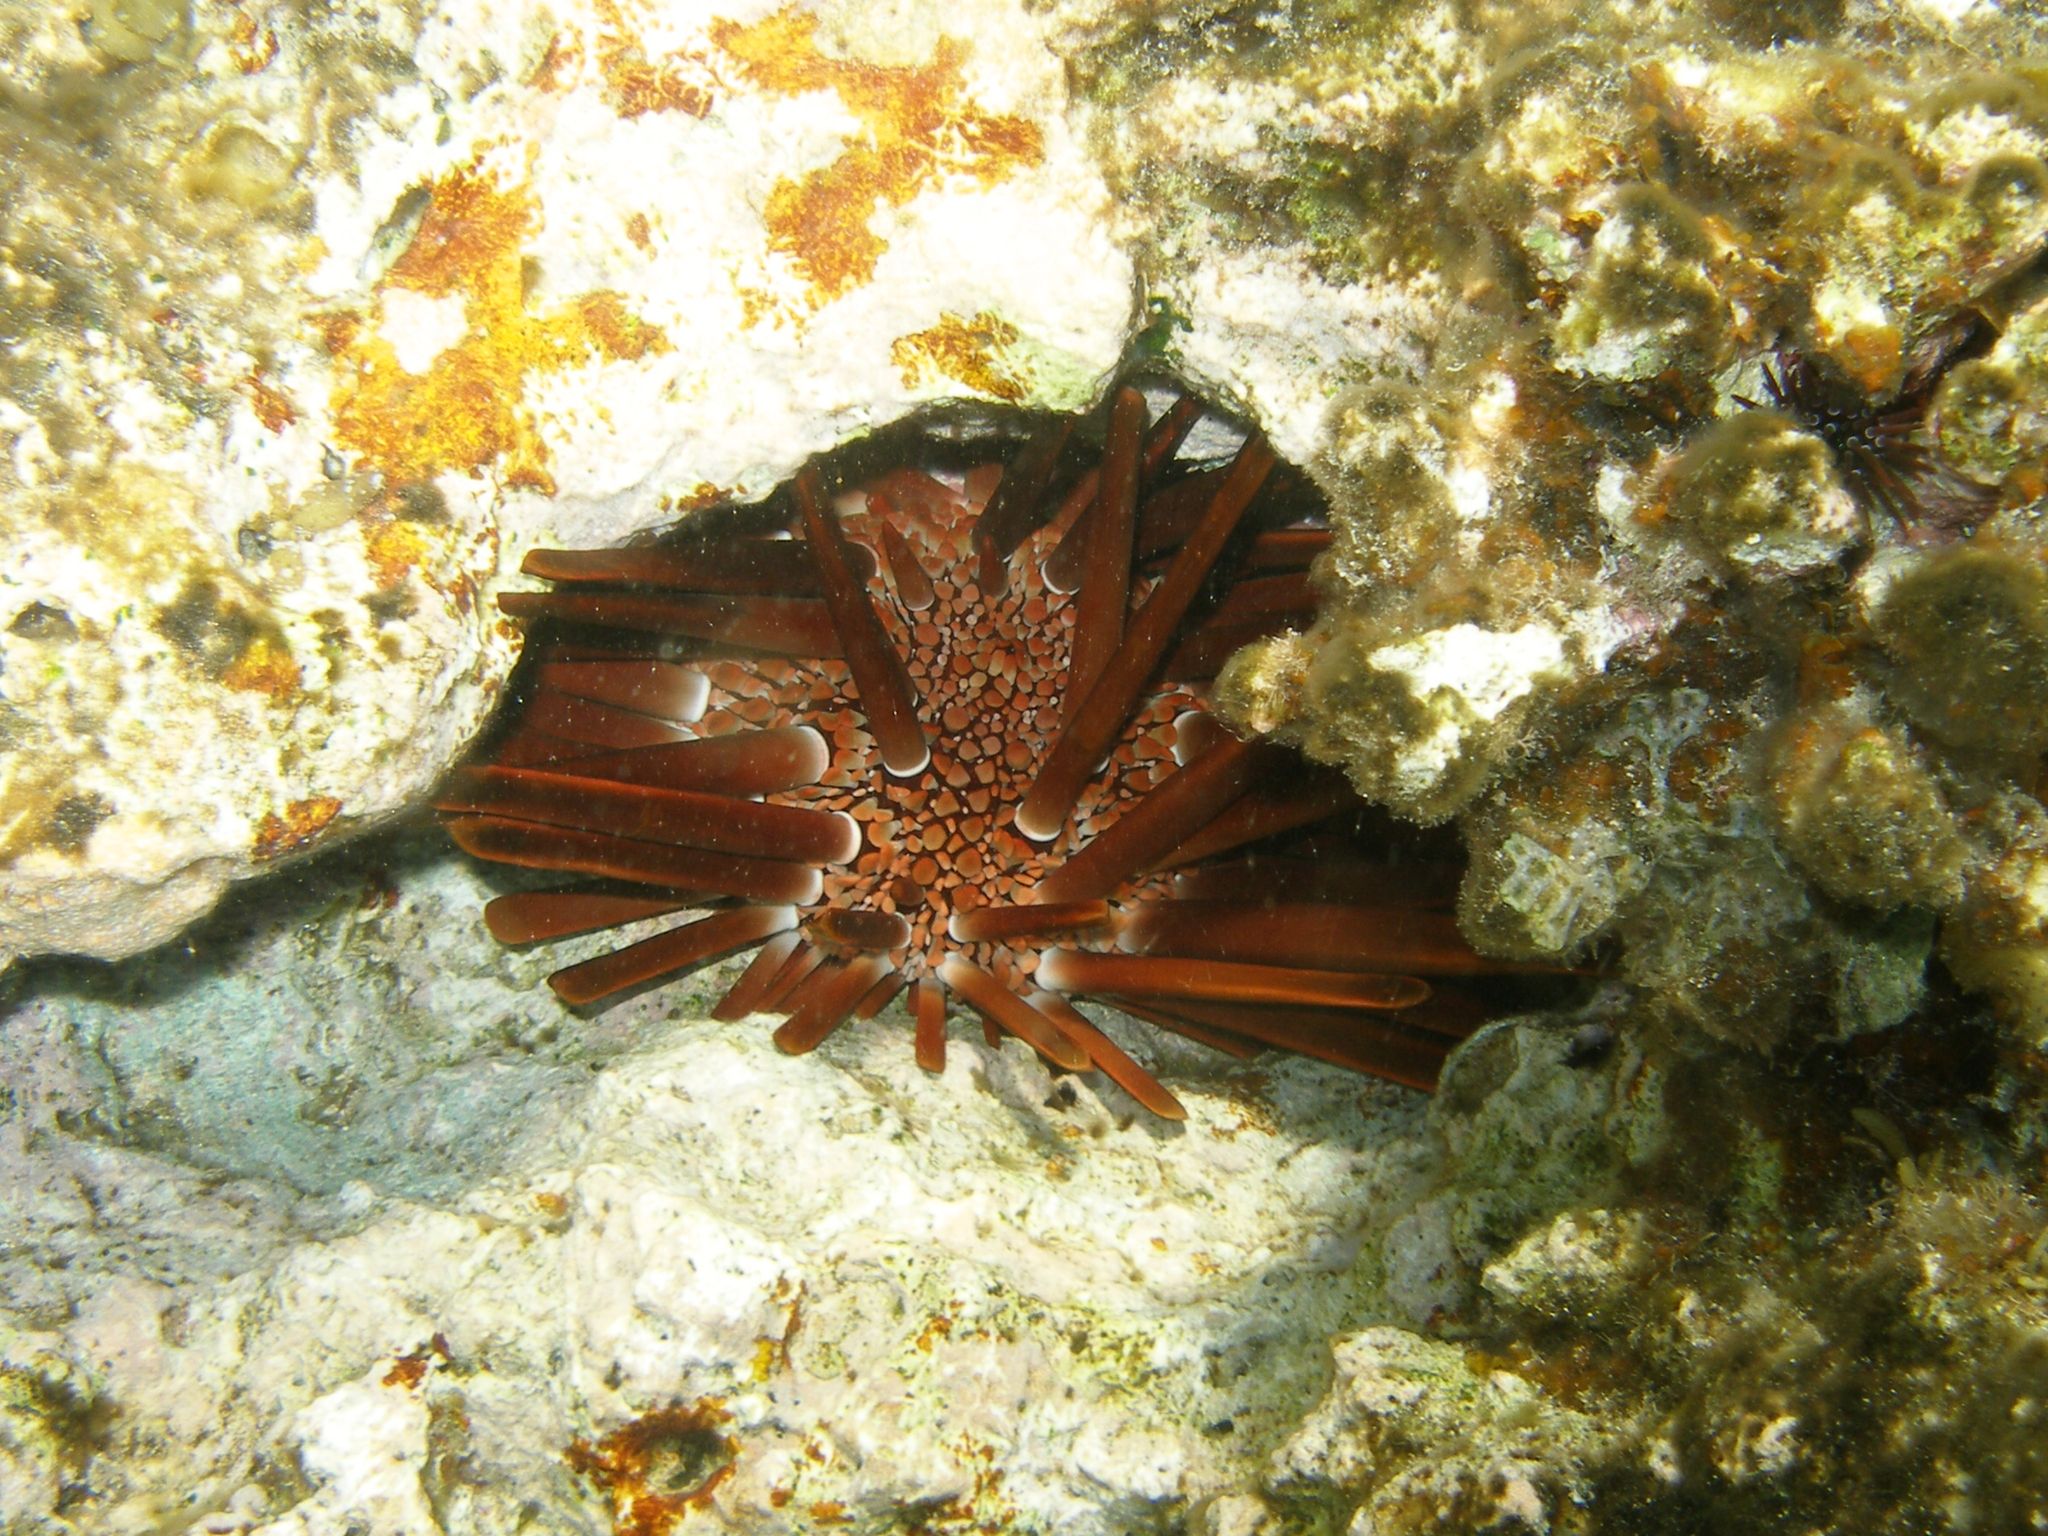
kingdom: Animalia
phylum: Echinodermata
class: Echinoidea
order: Camarodonta
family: Echinometridae
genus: Heterocentrotus
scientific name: Heterocentrotus mamillatus
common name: Slate pencil urchin
